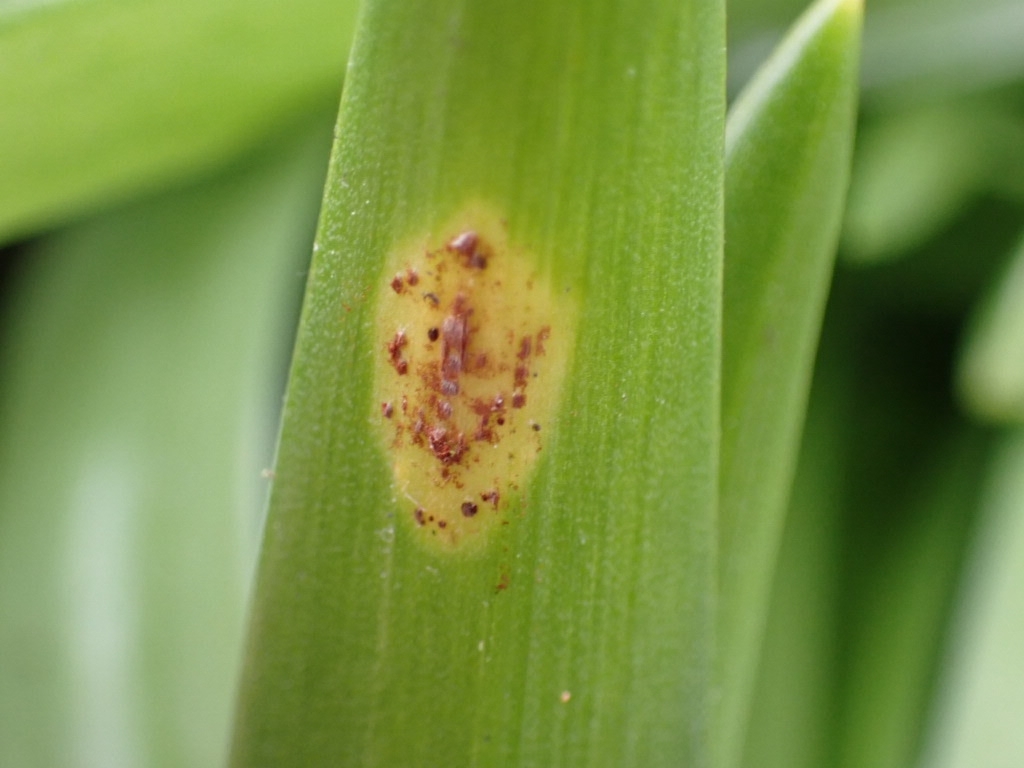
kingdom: Fungi
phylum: Basidiomycota
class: Pucciniomycetes
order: Pucciniales
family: Pucciniaceae
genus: Uromyces
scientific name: Uromyces hyacinthi
